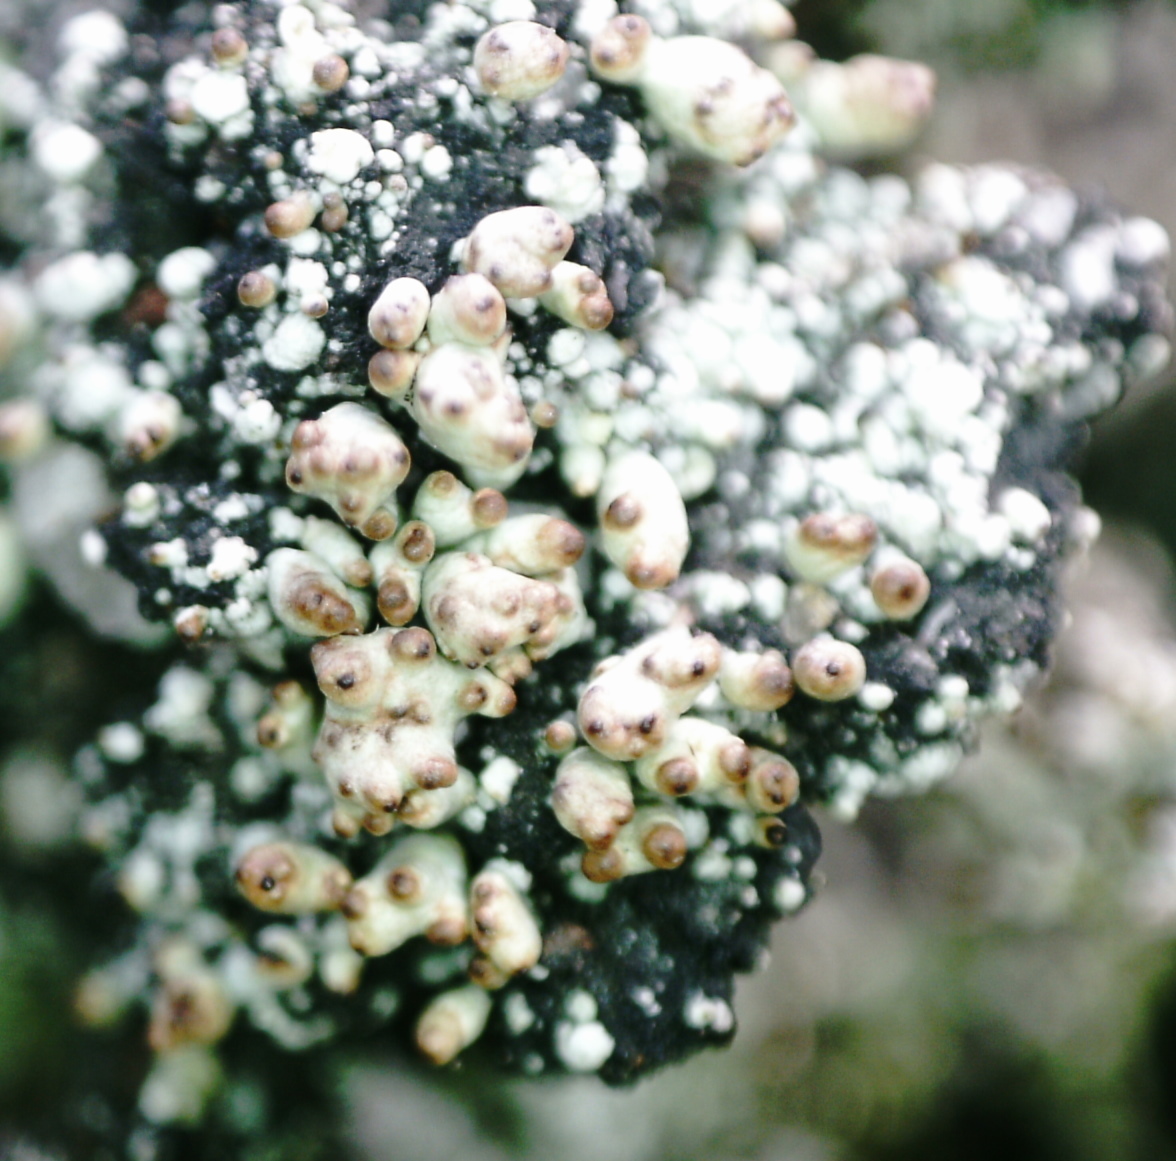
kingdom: Fungi
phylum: Ascomycota
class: Lecanoromycetes
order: Lecanorales
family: Cladoniaceae
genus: Pycnothelia
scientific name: Pycnothelia papillaria
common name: Nipple lichen
